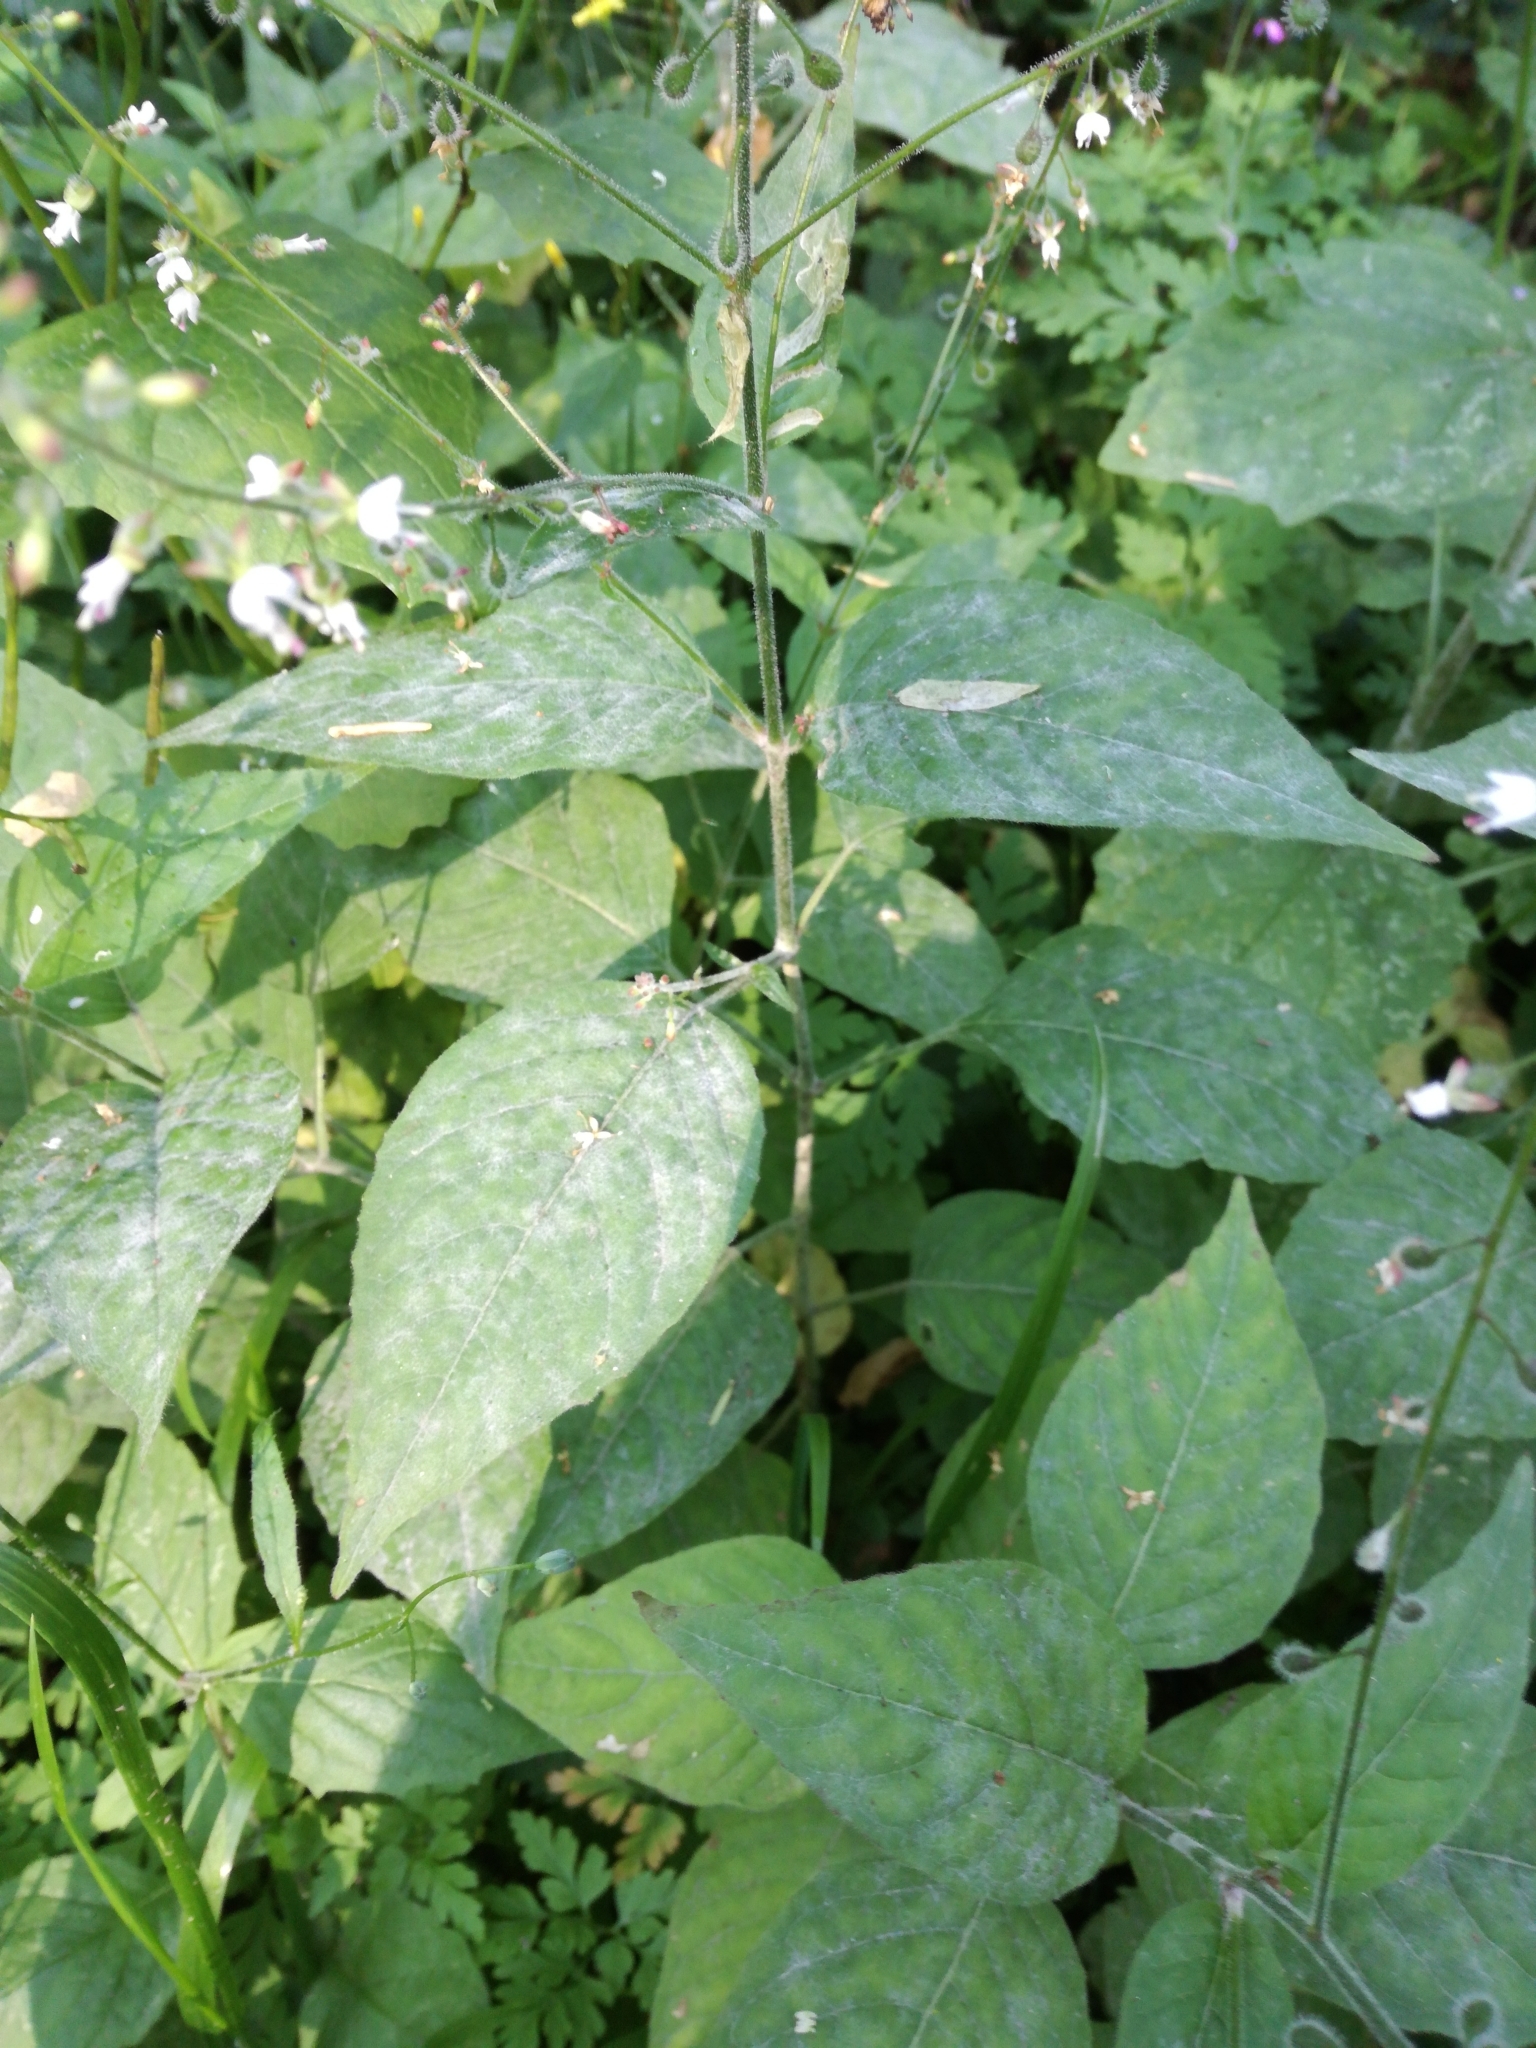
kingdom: Plantae
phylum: Tracheophyta
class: Magnoliopsida
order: Myrtales
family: Onagraceae
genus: Circaea
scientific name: Circaea lutetiana
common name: Enchanter's-nightshade
